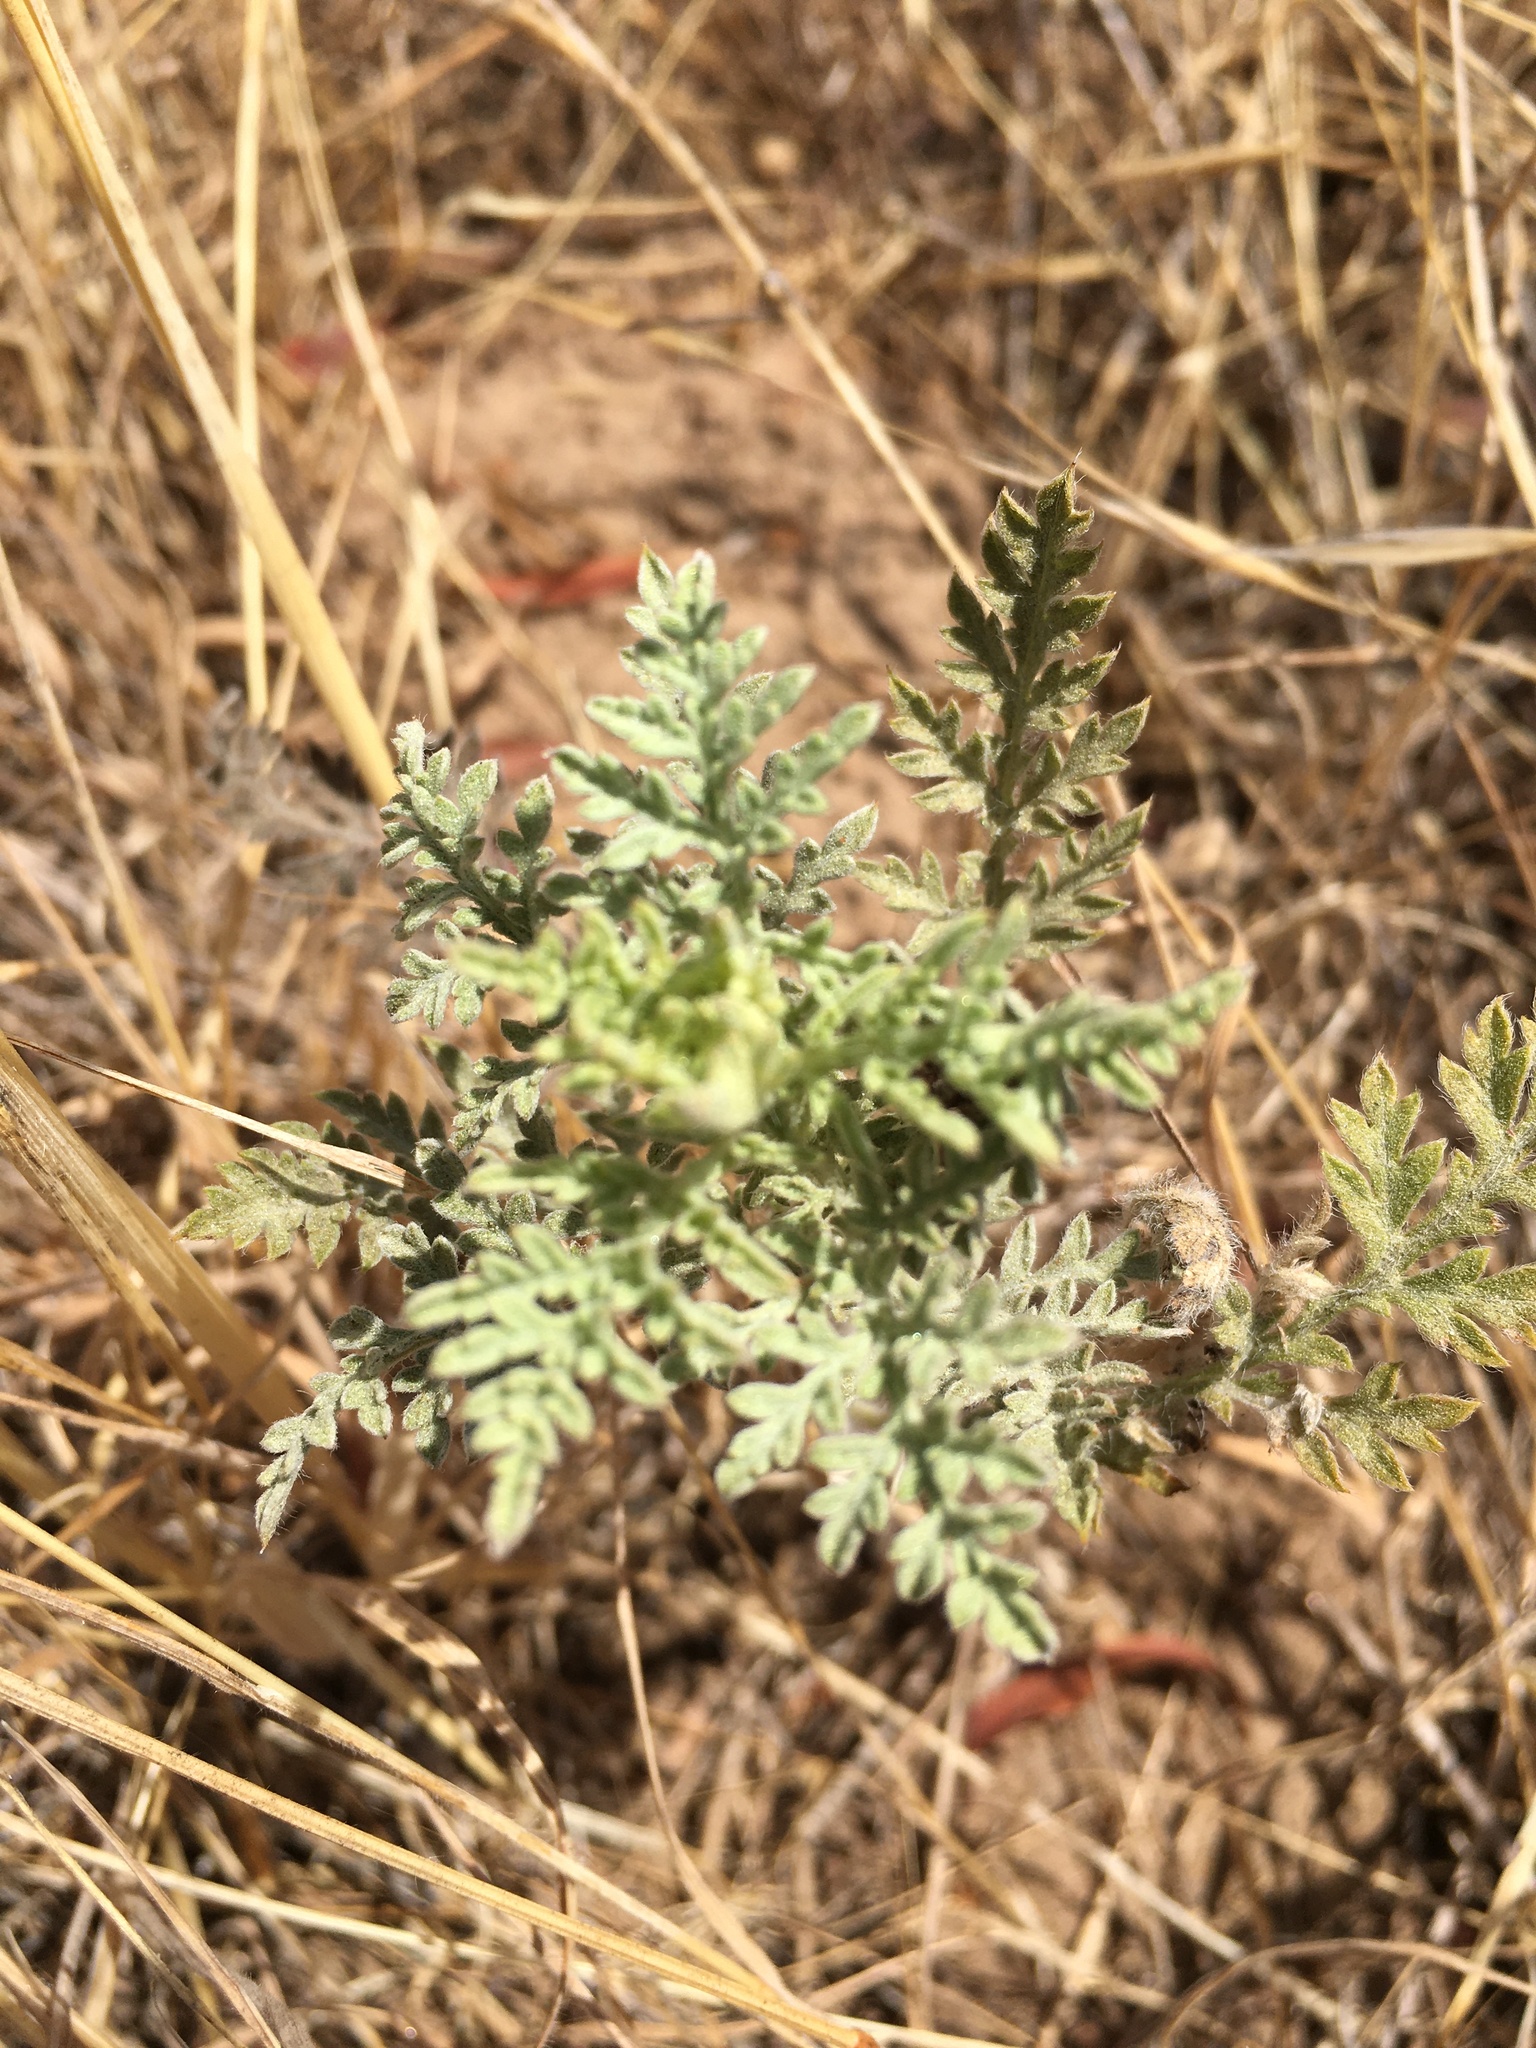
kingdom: Plantae
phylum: Tracheophyta
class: Magnoliopsida
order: Asterales
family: Asteraceae
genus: Ambrosia
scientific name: Ambrosia pumila
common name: San diego ambrosia
